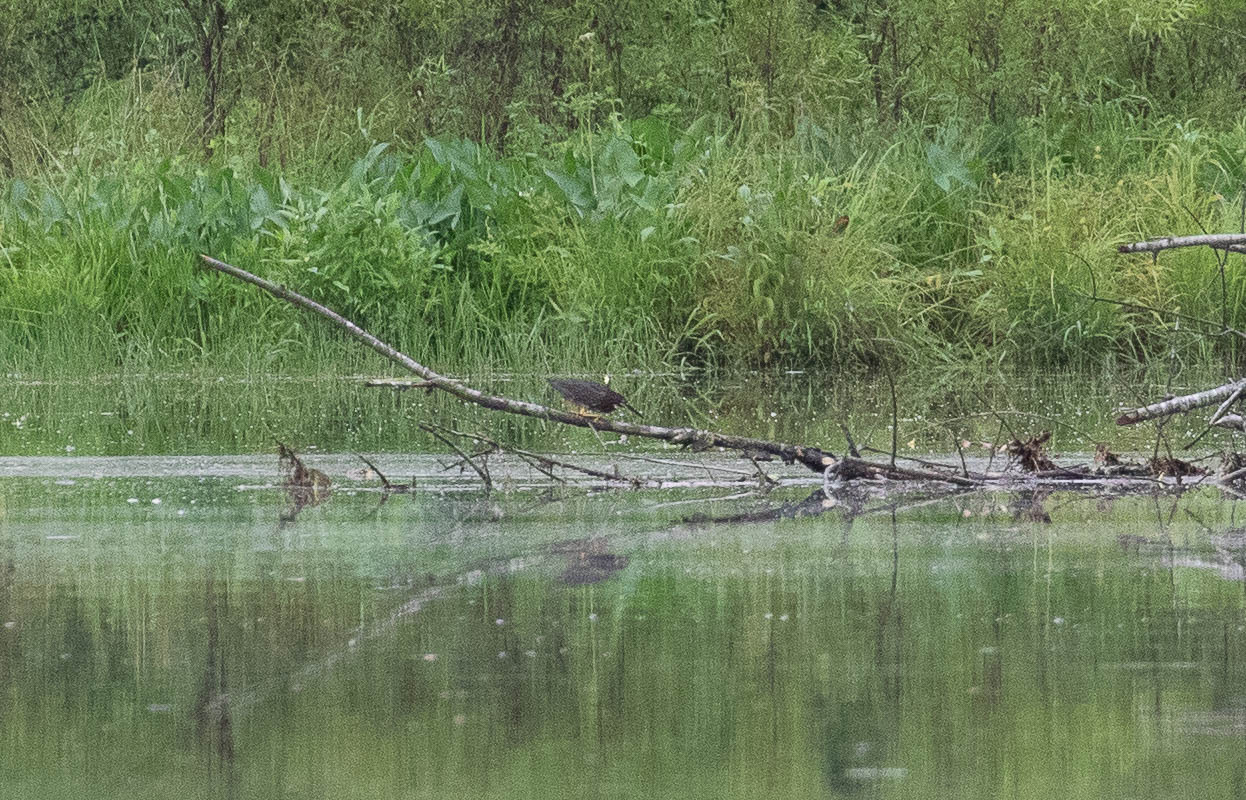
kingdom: Animalia
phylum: Chordata
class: Aves
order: Pelecaniformes
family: Ardeidae
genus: Butorides
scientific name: Butorides virescens
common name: Green heron
